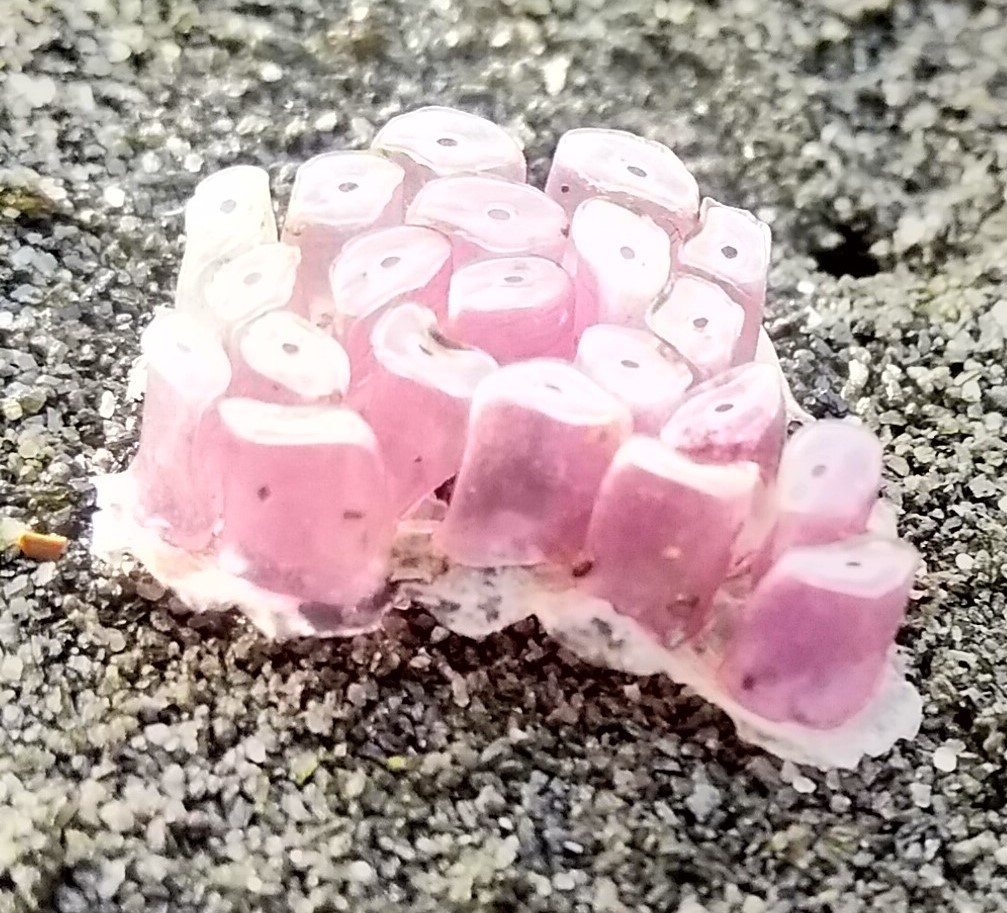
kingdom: Animalia
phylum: Mollusca
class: Gastropoda
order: Neogastropoda
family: Muricidae
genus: Dicathais
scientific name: Dicathais orbita
